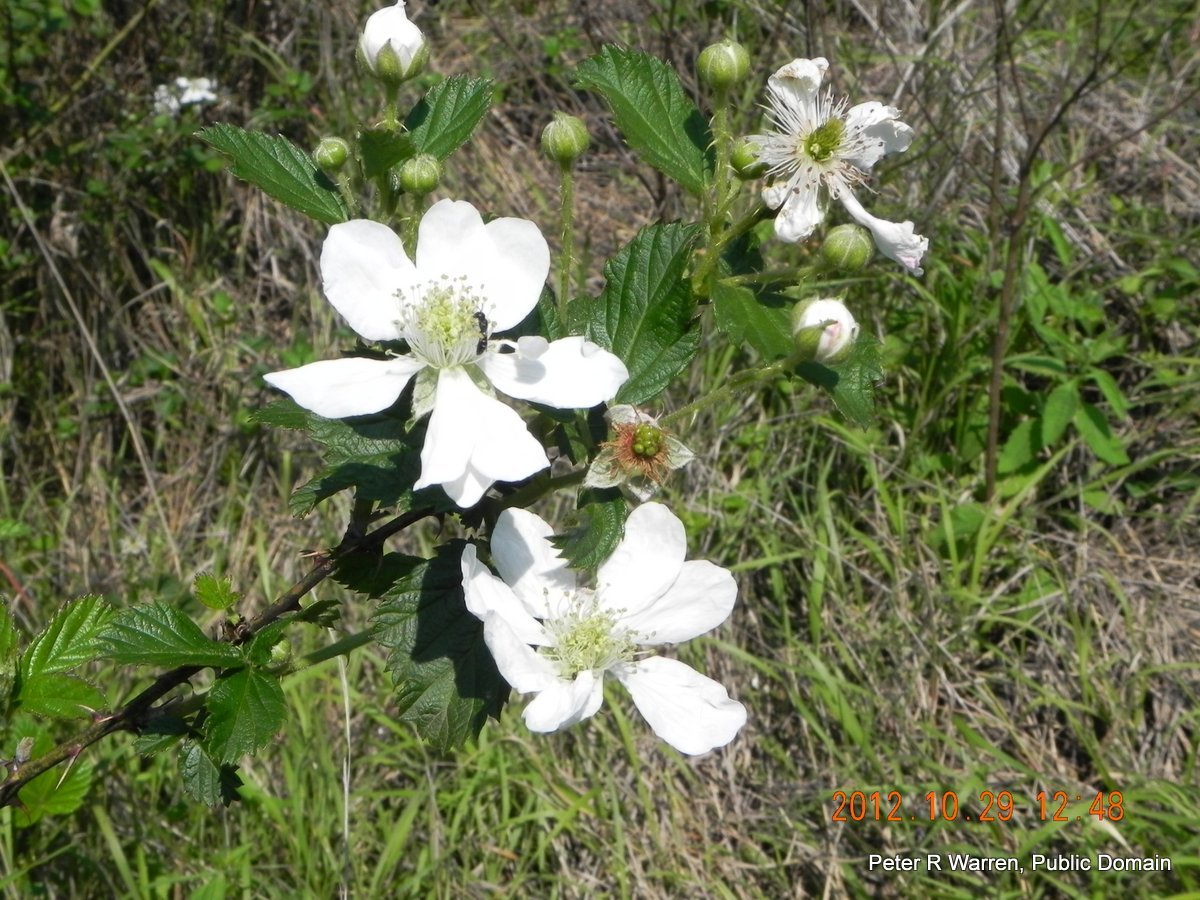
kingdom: Plantae
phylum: Tracheophyta
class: Magnoliopsida
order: Rosales
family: Rosaceae
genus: Rubus
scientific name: Rubus cuneifolius
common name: American bramble
